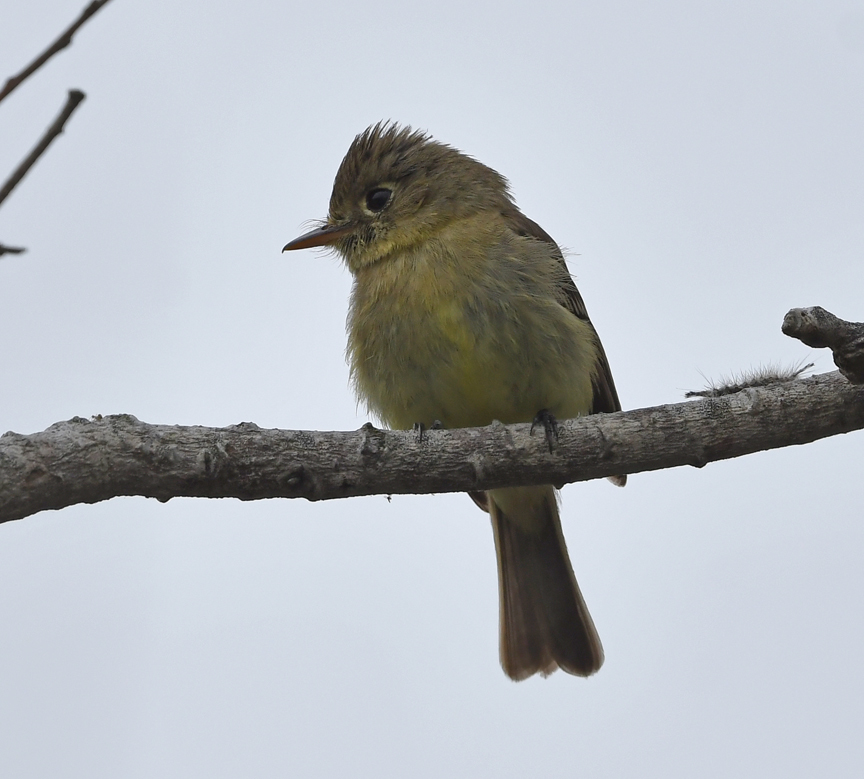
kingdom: Animalia
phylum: Chordata
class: Aves
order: Passeriformes
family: Tyrannidae
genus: Empidonax
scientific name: Empidonax difficilis
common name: Pacific-slope flycatcher
